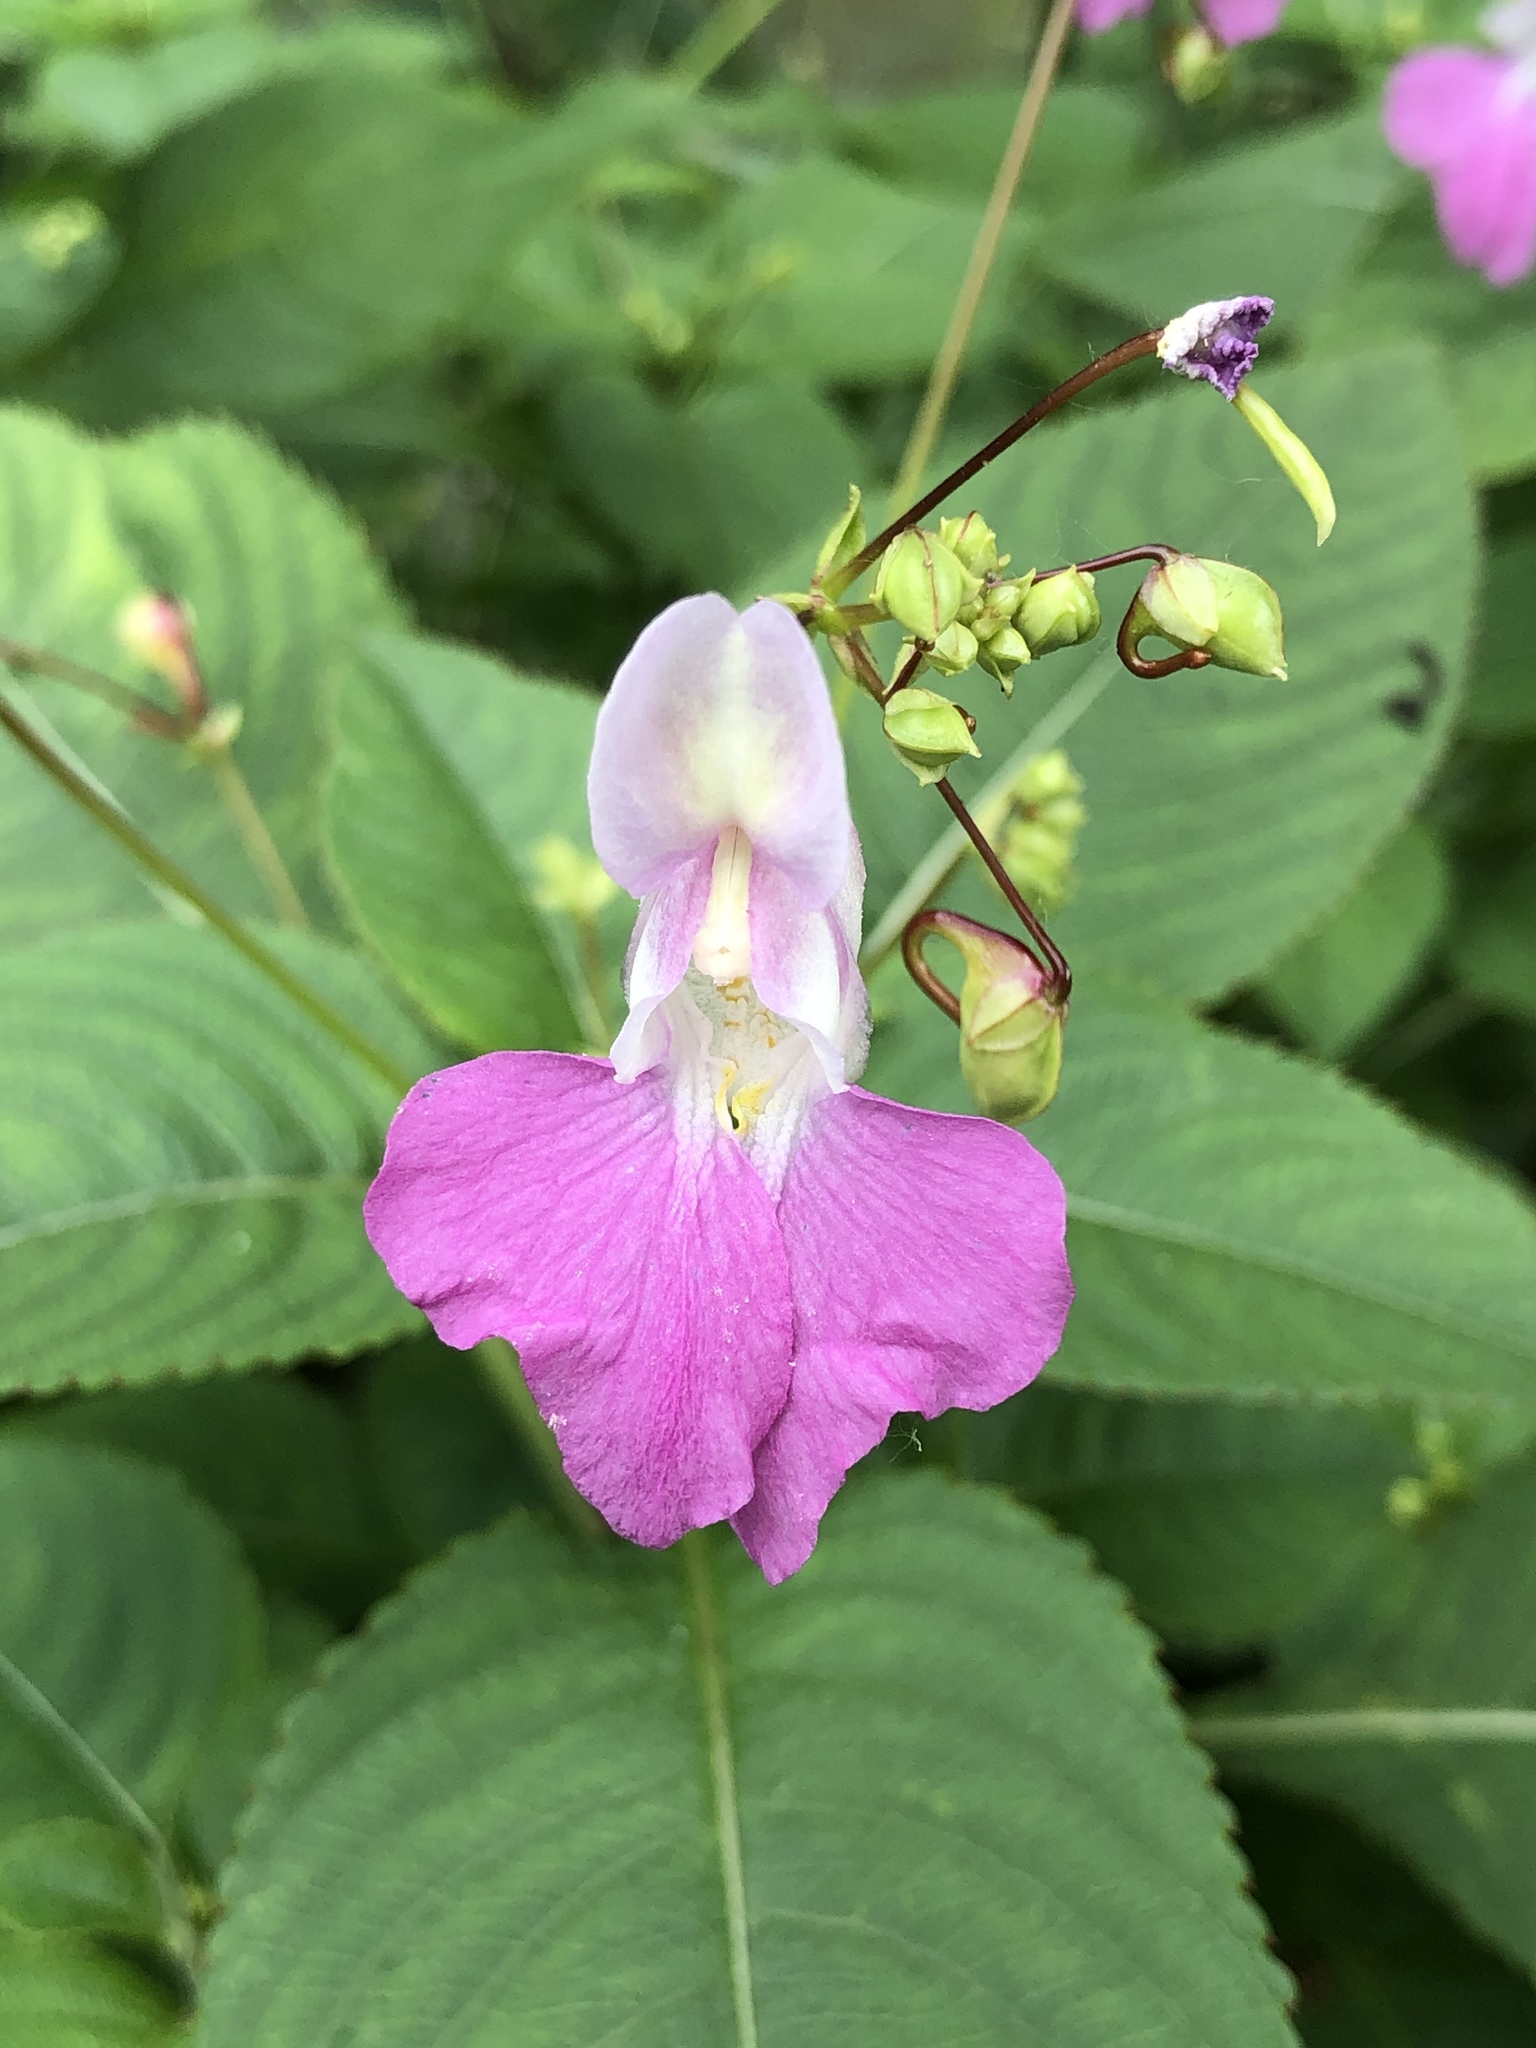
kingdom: Plantae
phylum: Tracheophyta
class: Magnoliopsida
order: Ericales
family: Balsaminaceae
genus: Impatiens
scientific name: Impatiens balfourii
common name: Balfour's touch-me-not
